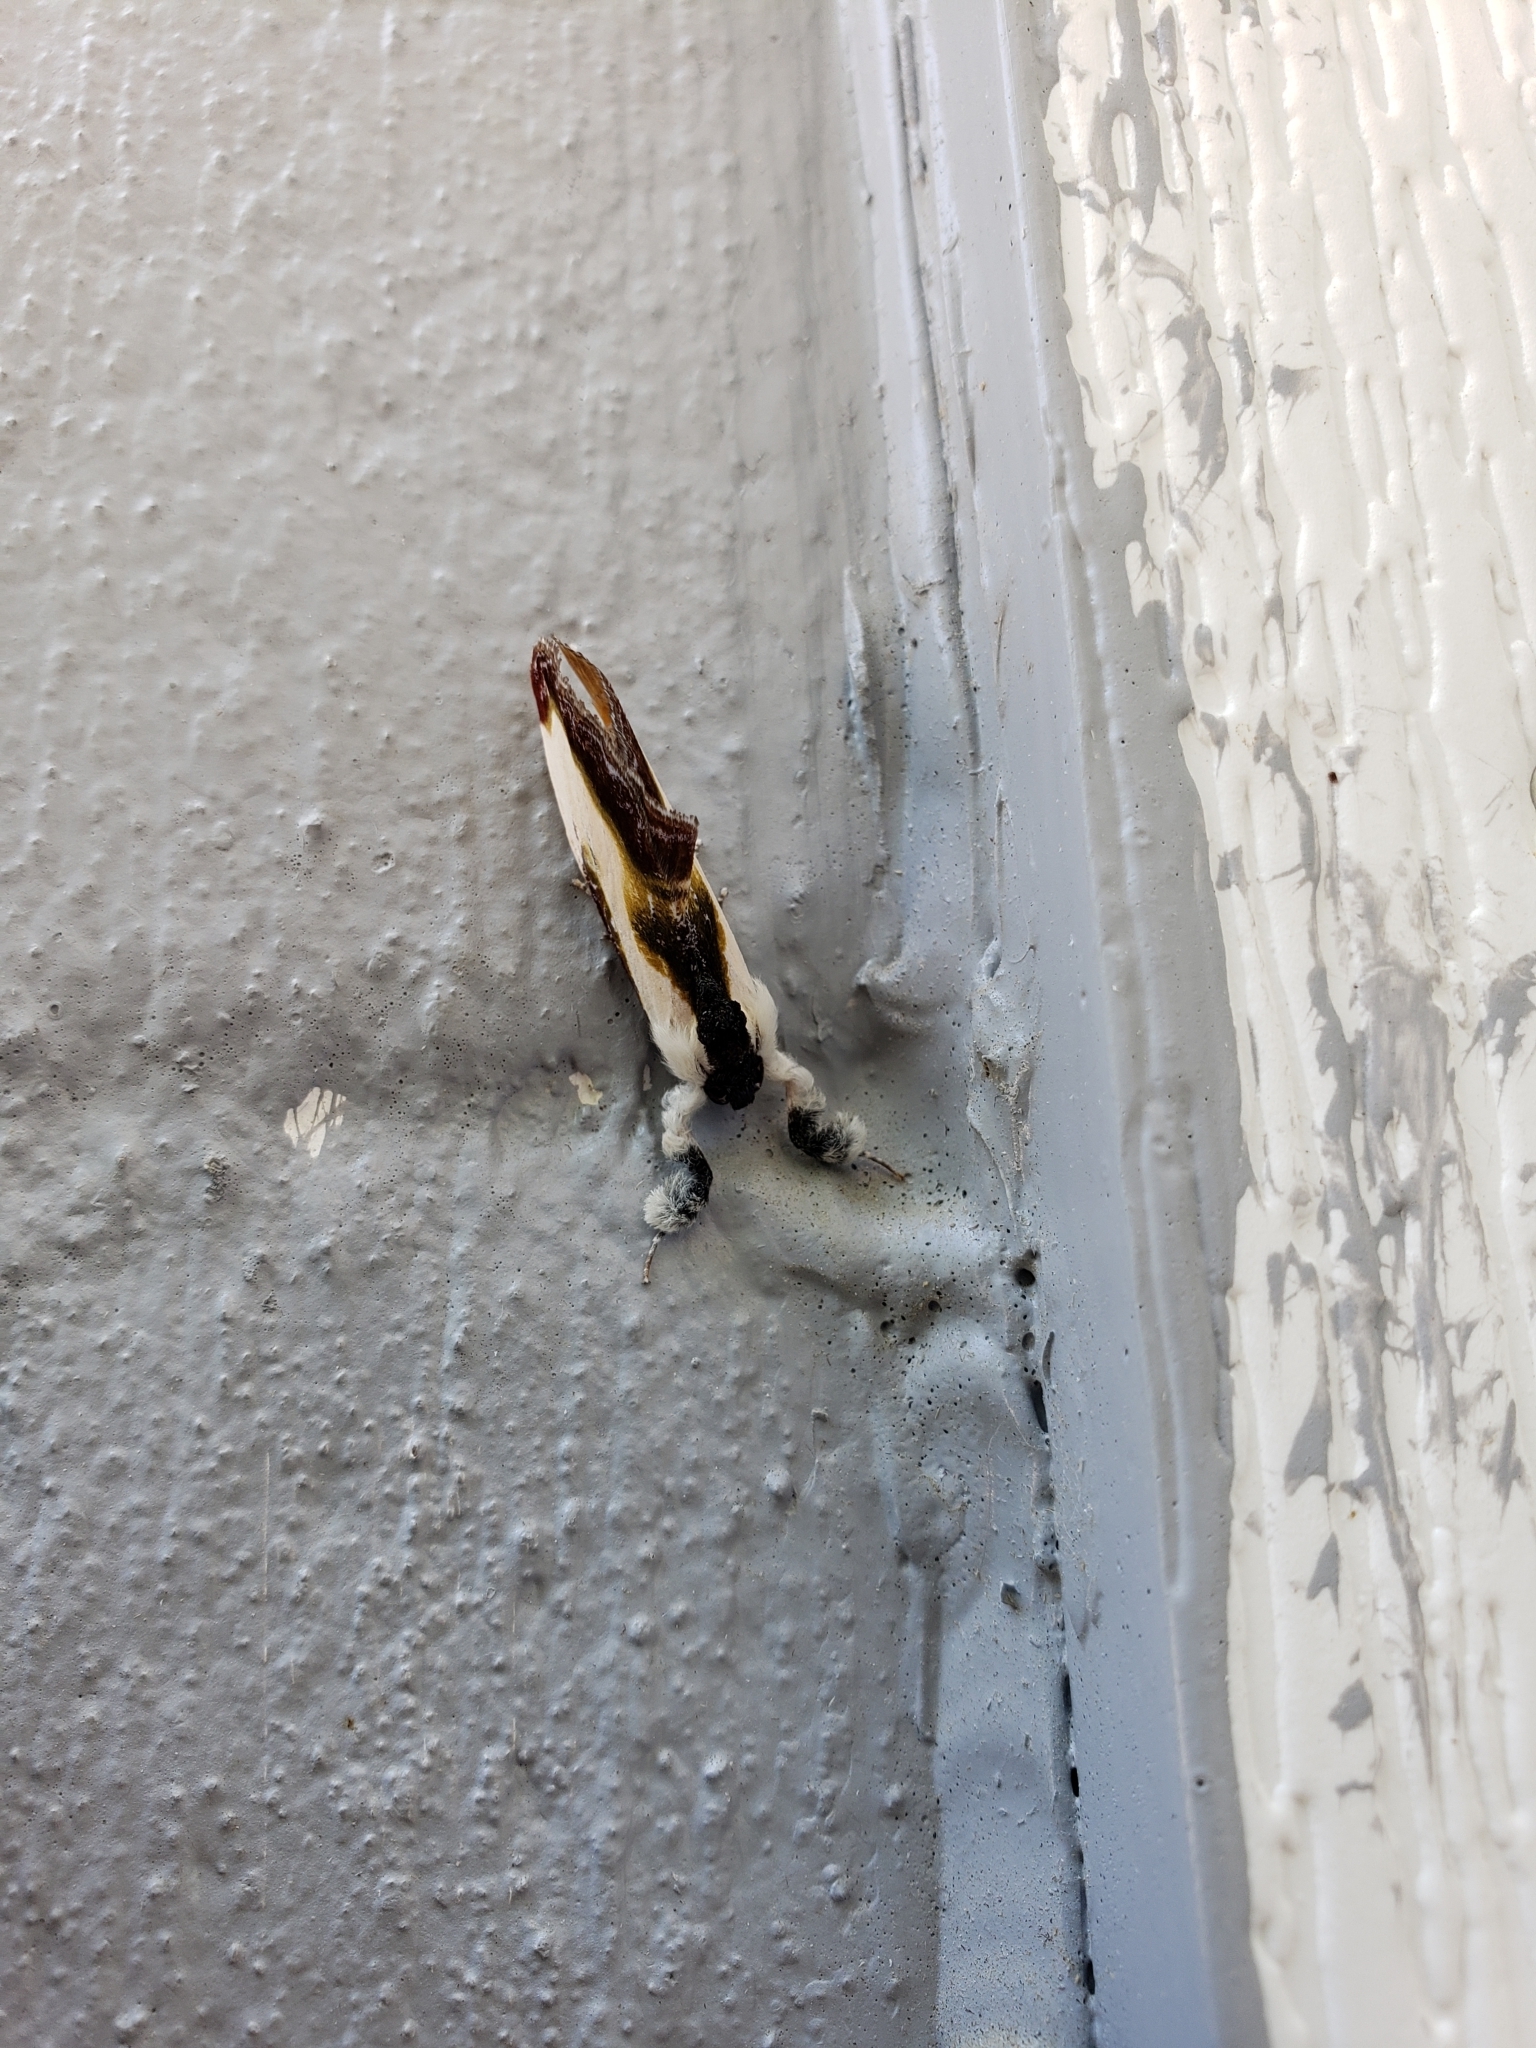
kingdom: Animalia
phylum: Arthropoda
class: Insecta
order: Lepidoptera
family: Noctuidae
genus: Eudryas
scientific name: Eudryas grata
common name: Beautiful wood-nymph
